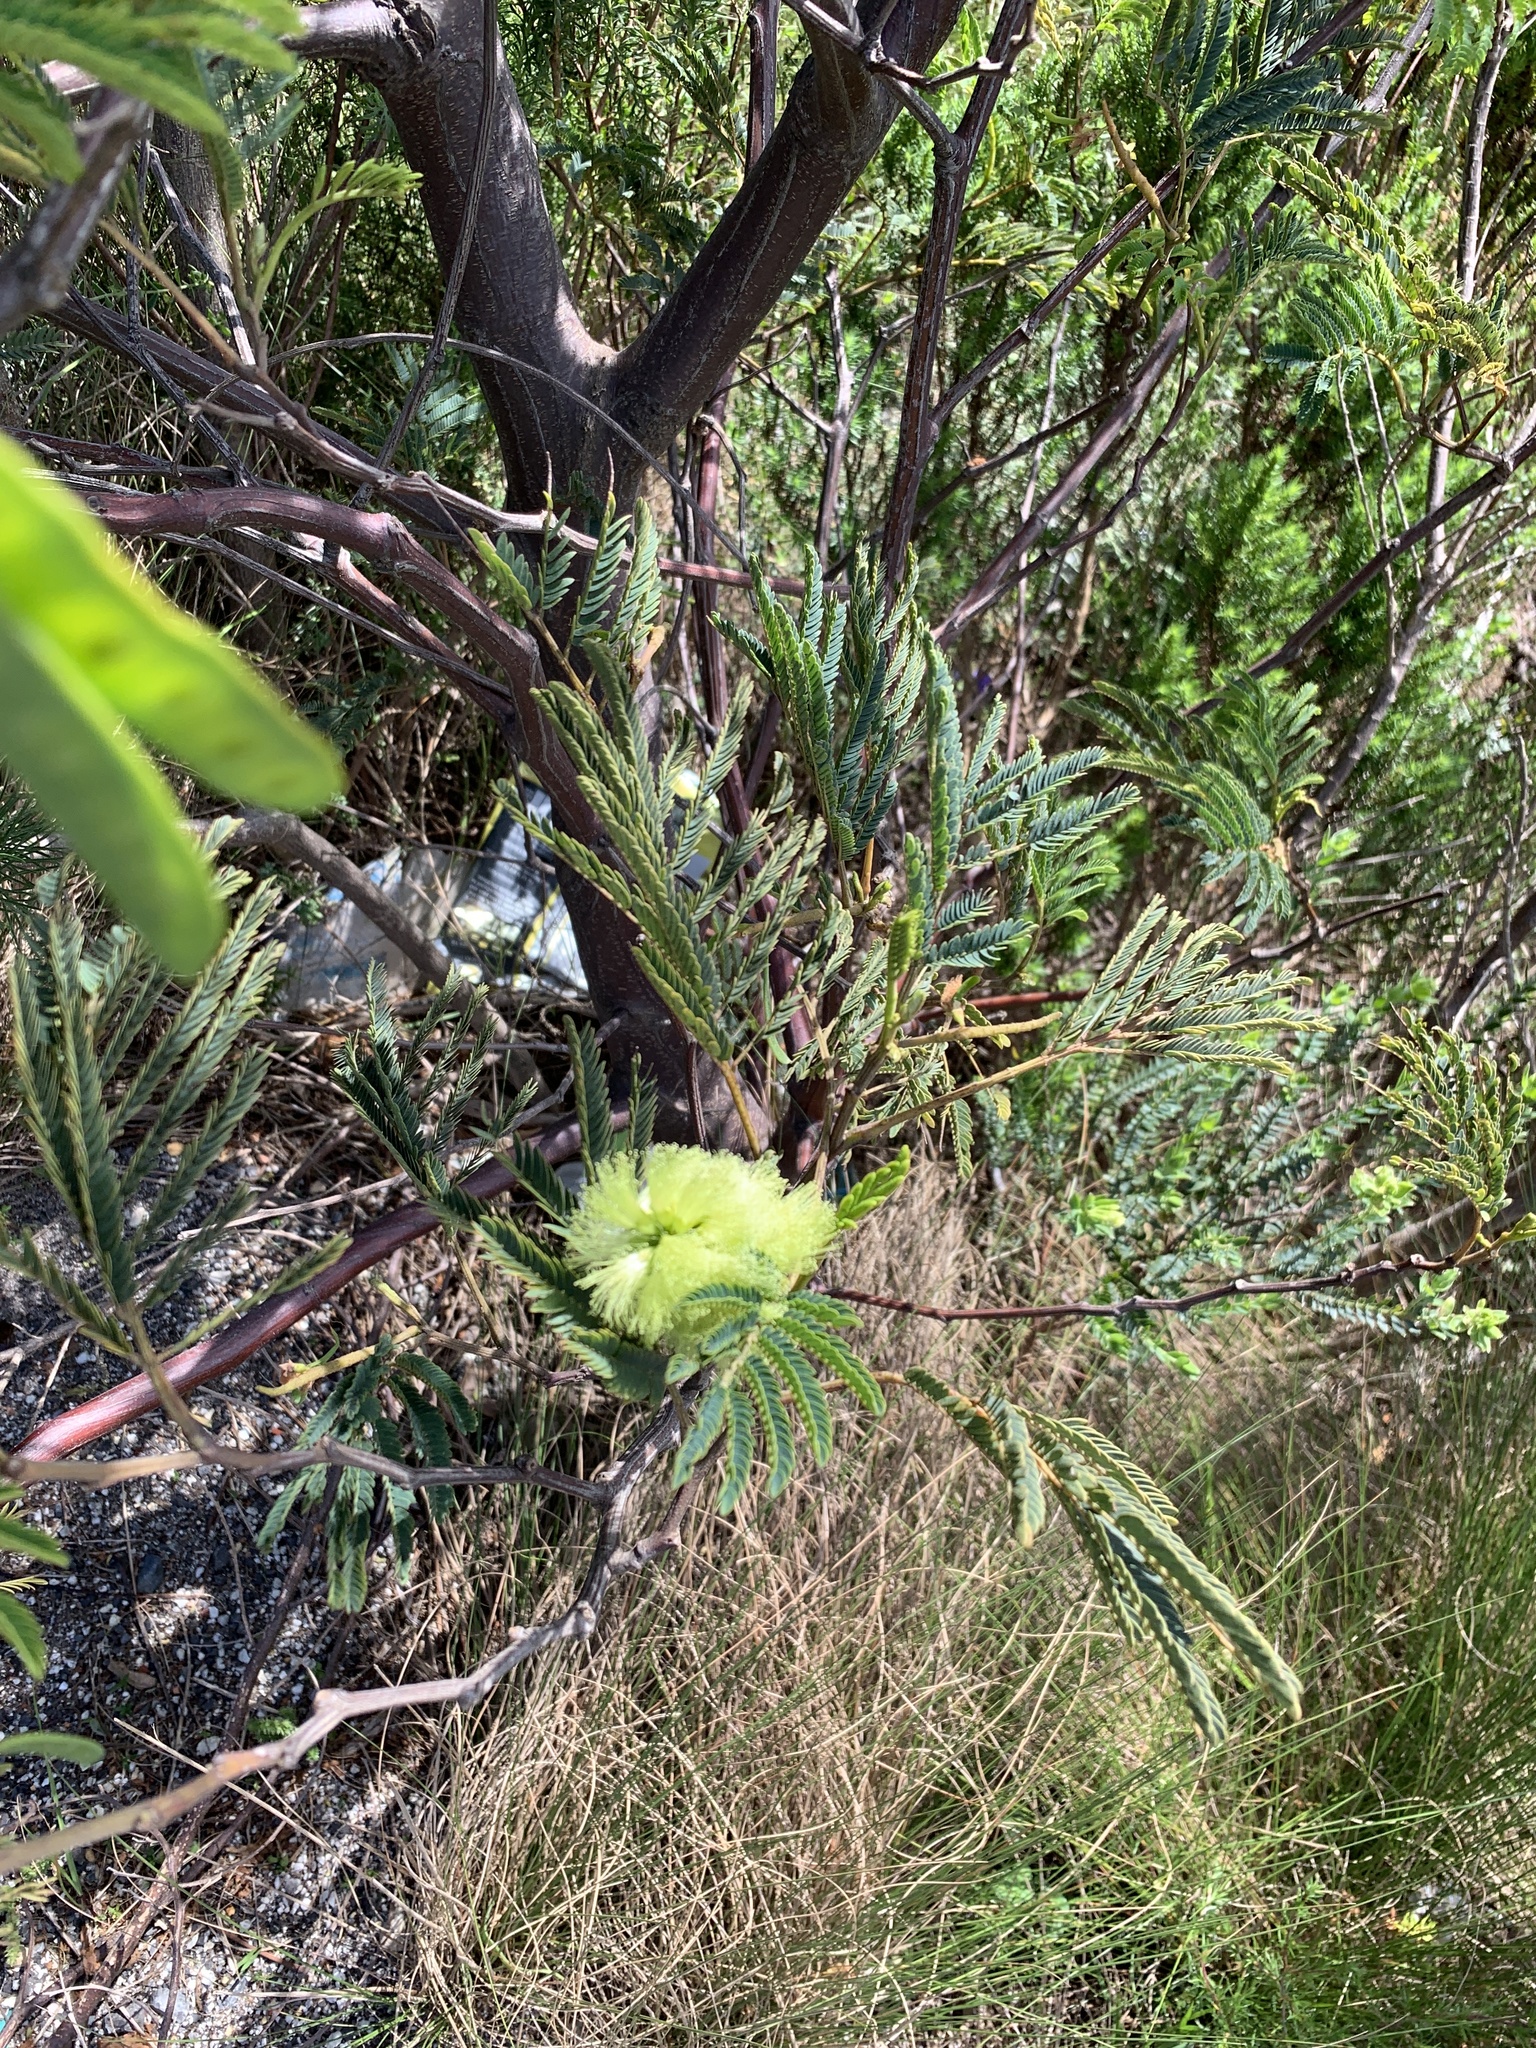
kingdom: Plantae
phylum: Tracheophyta
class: Magnoliopsida
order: Fabales
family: Fabaceae
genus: Paraserianthes
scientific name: Paraserianthes lophantha
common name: Plume albizia
